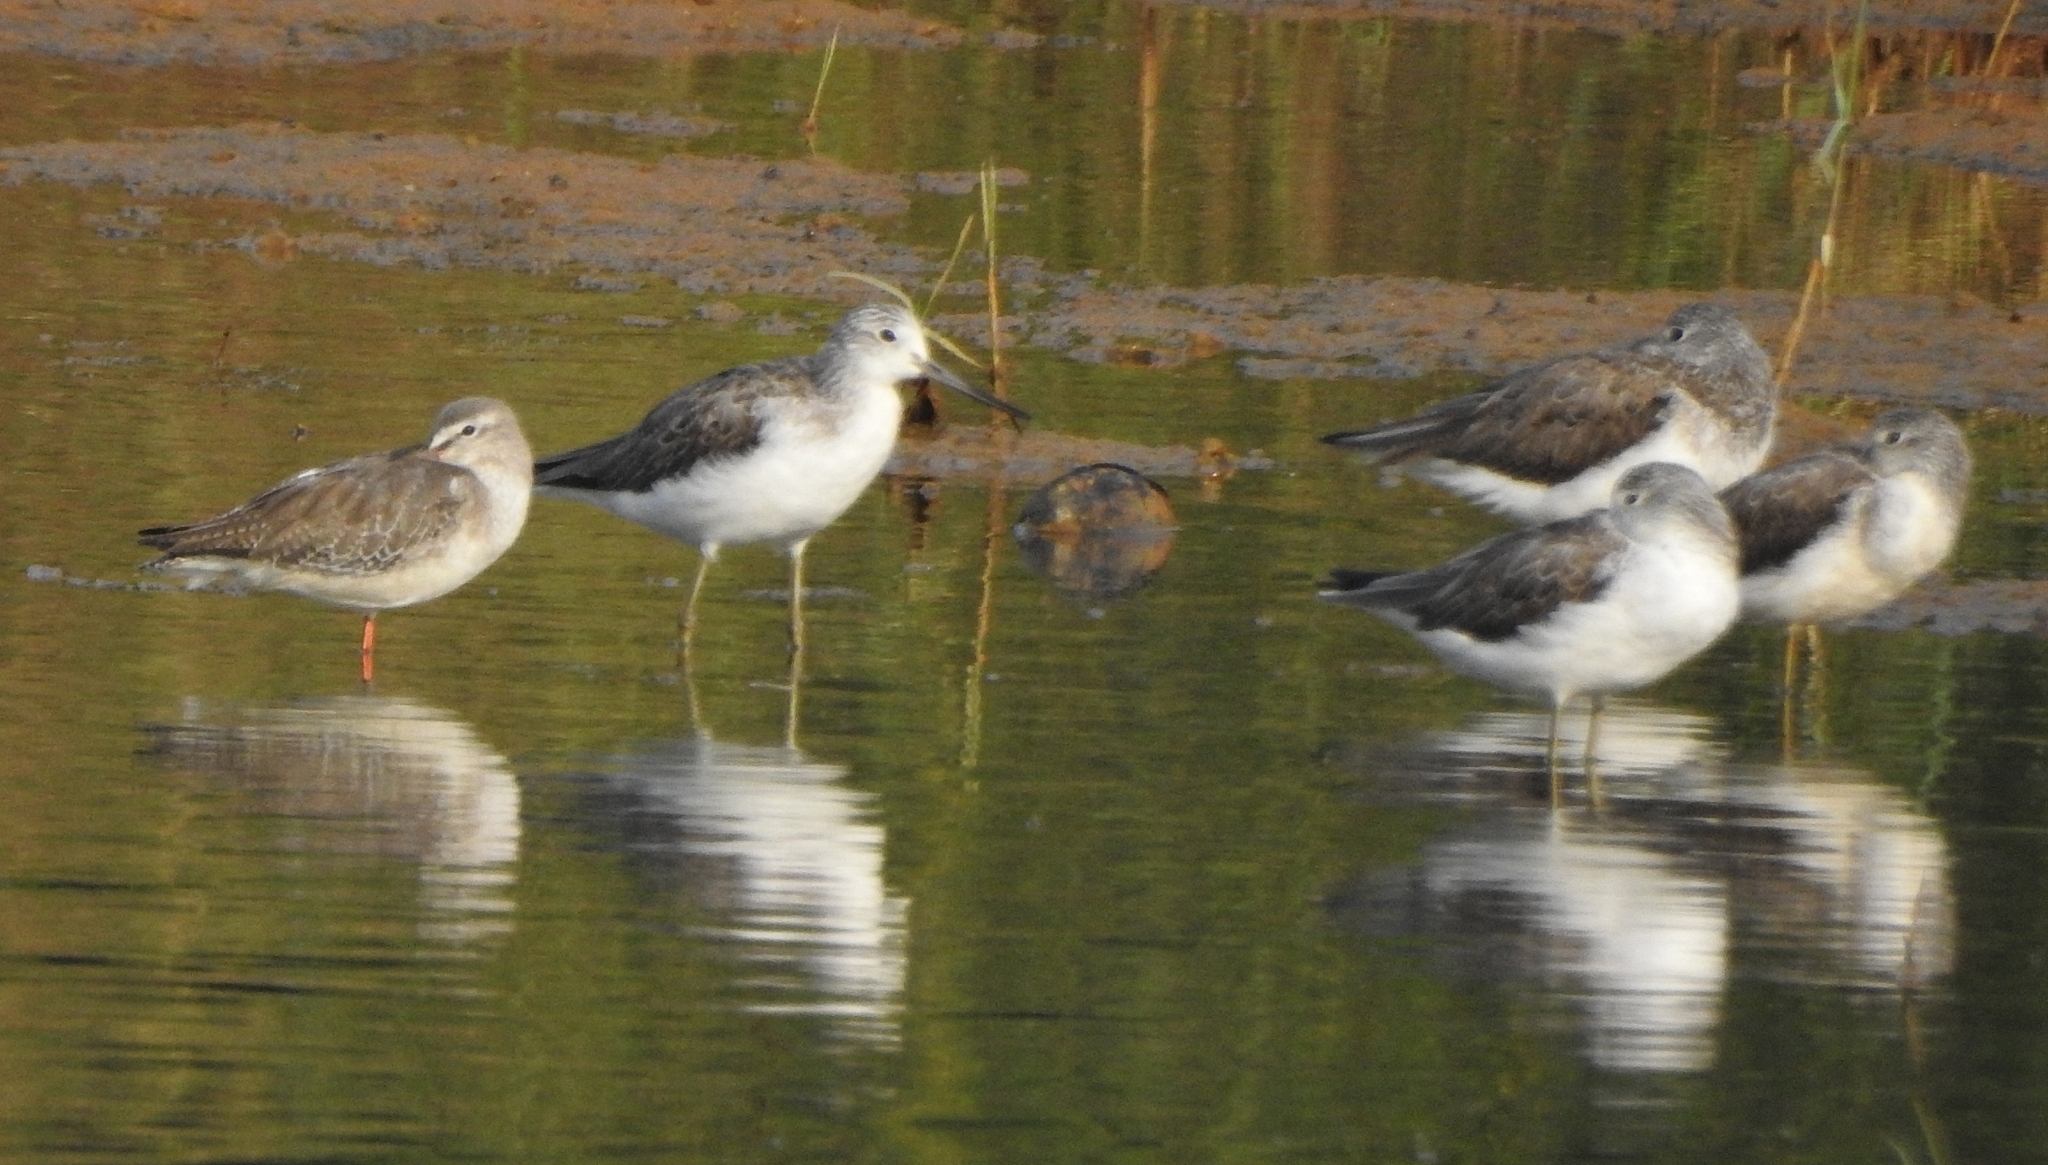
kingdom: Animalia
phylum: Chordata
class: Aves
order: Charadriiformes
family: Scolopacidae
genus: Tringa
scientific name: Tringa nebularia
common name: Common greenshank
